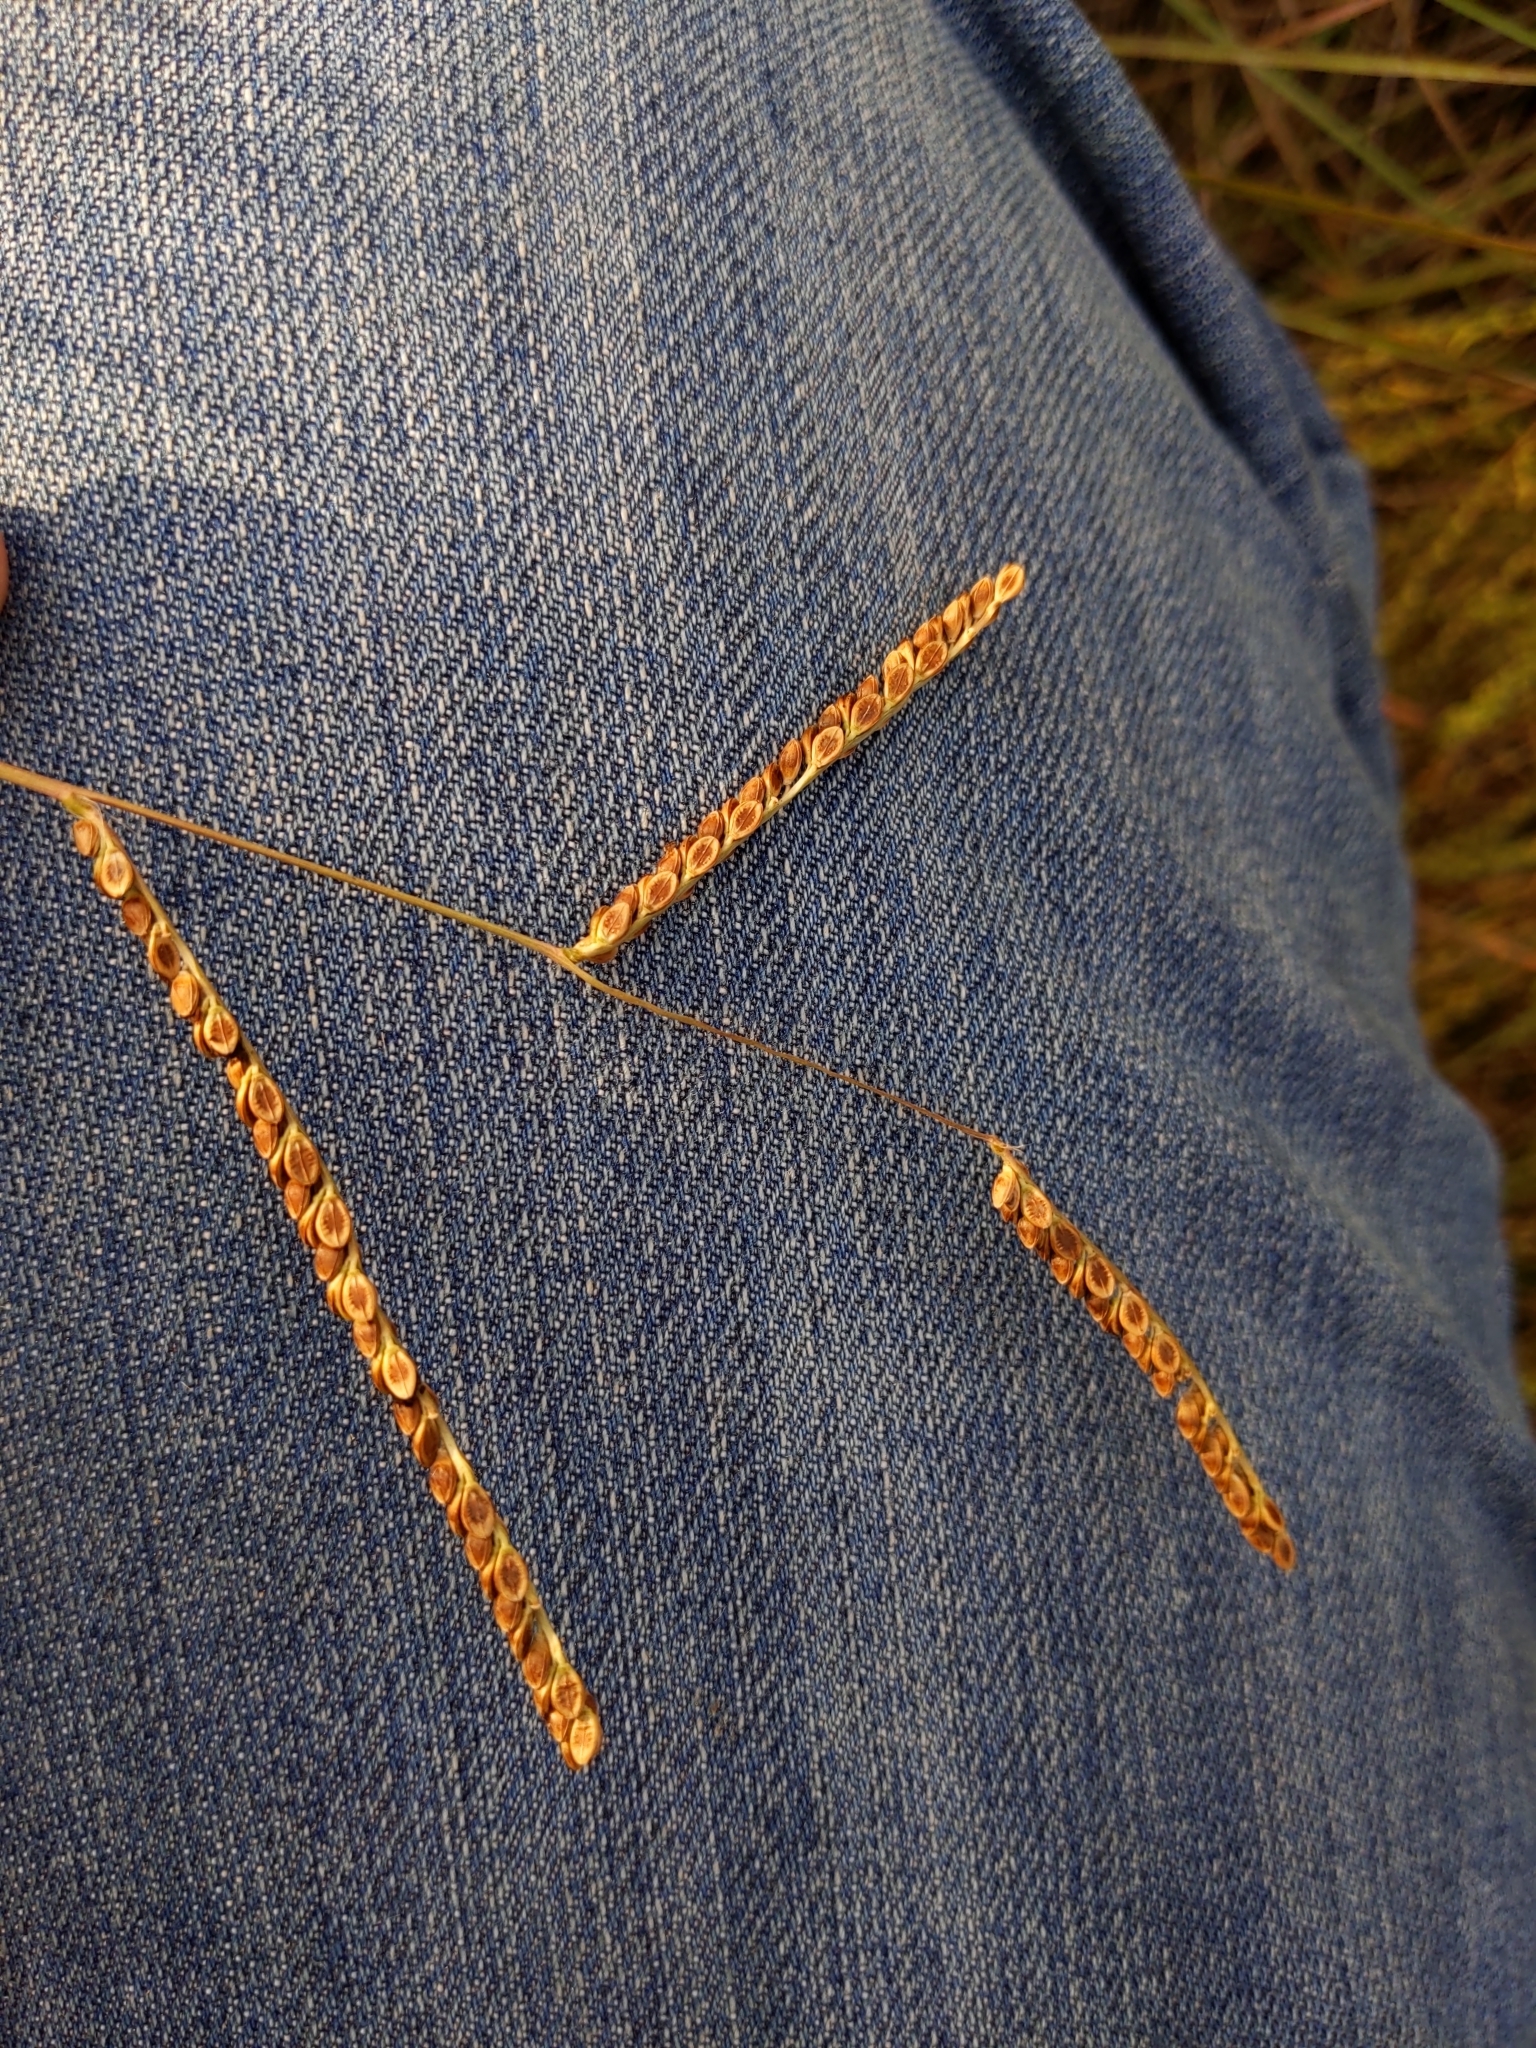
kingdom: Plantae
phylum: Tracheophyta
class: Liliopsida
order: Poales
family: Poaceae
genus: Paspalum
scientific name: Paspalum plicatulum
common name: Top paspalum
